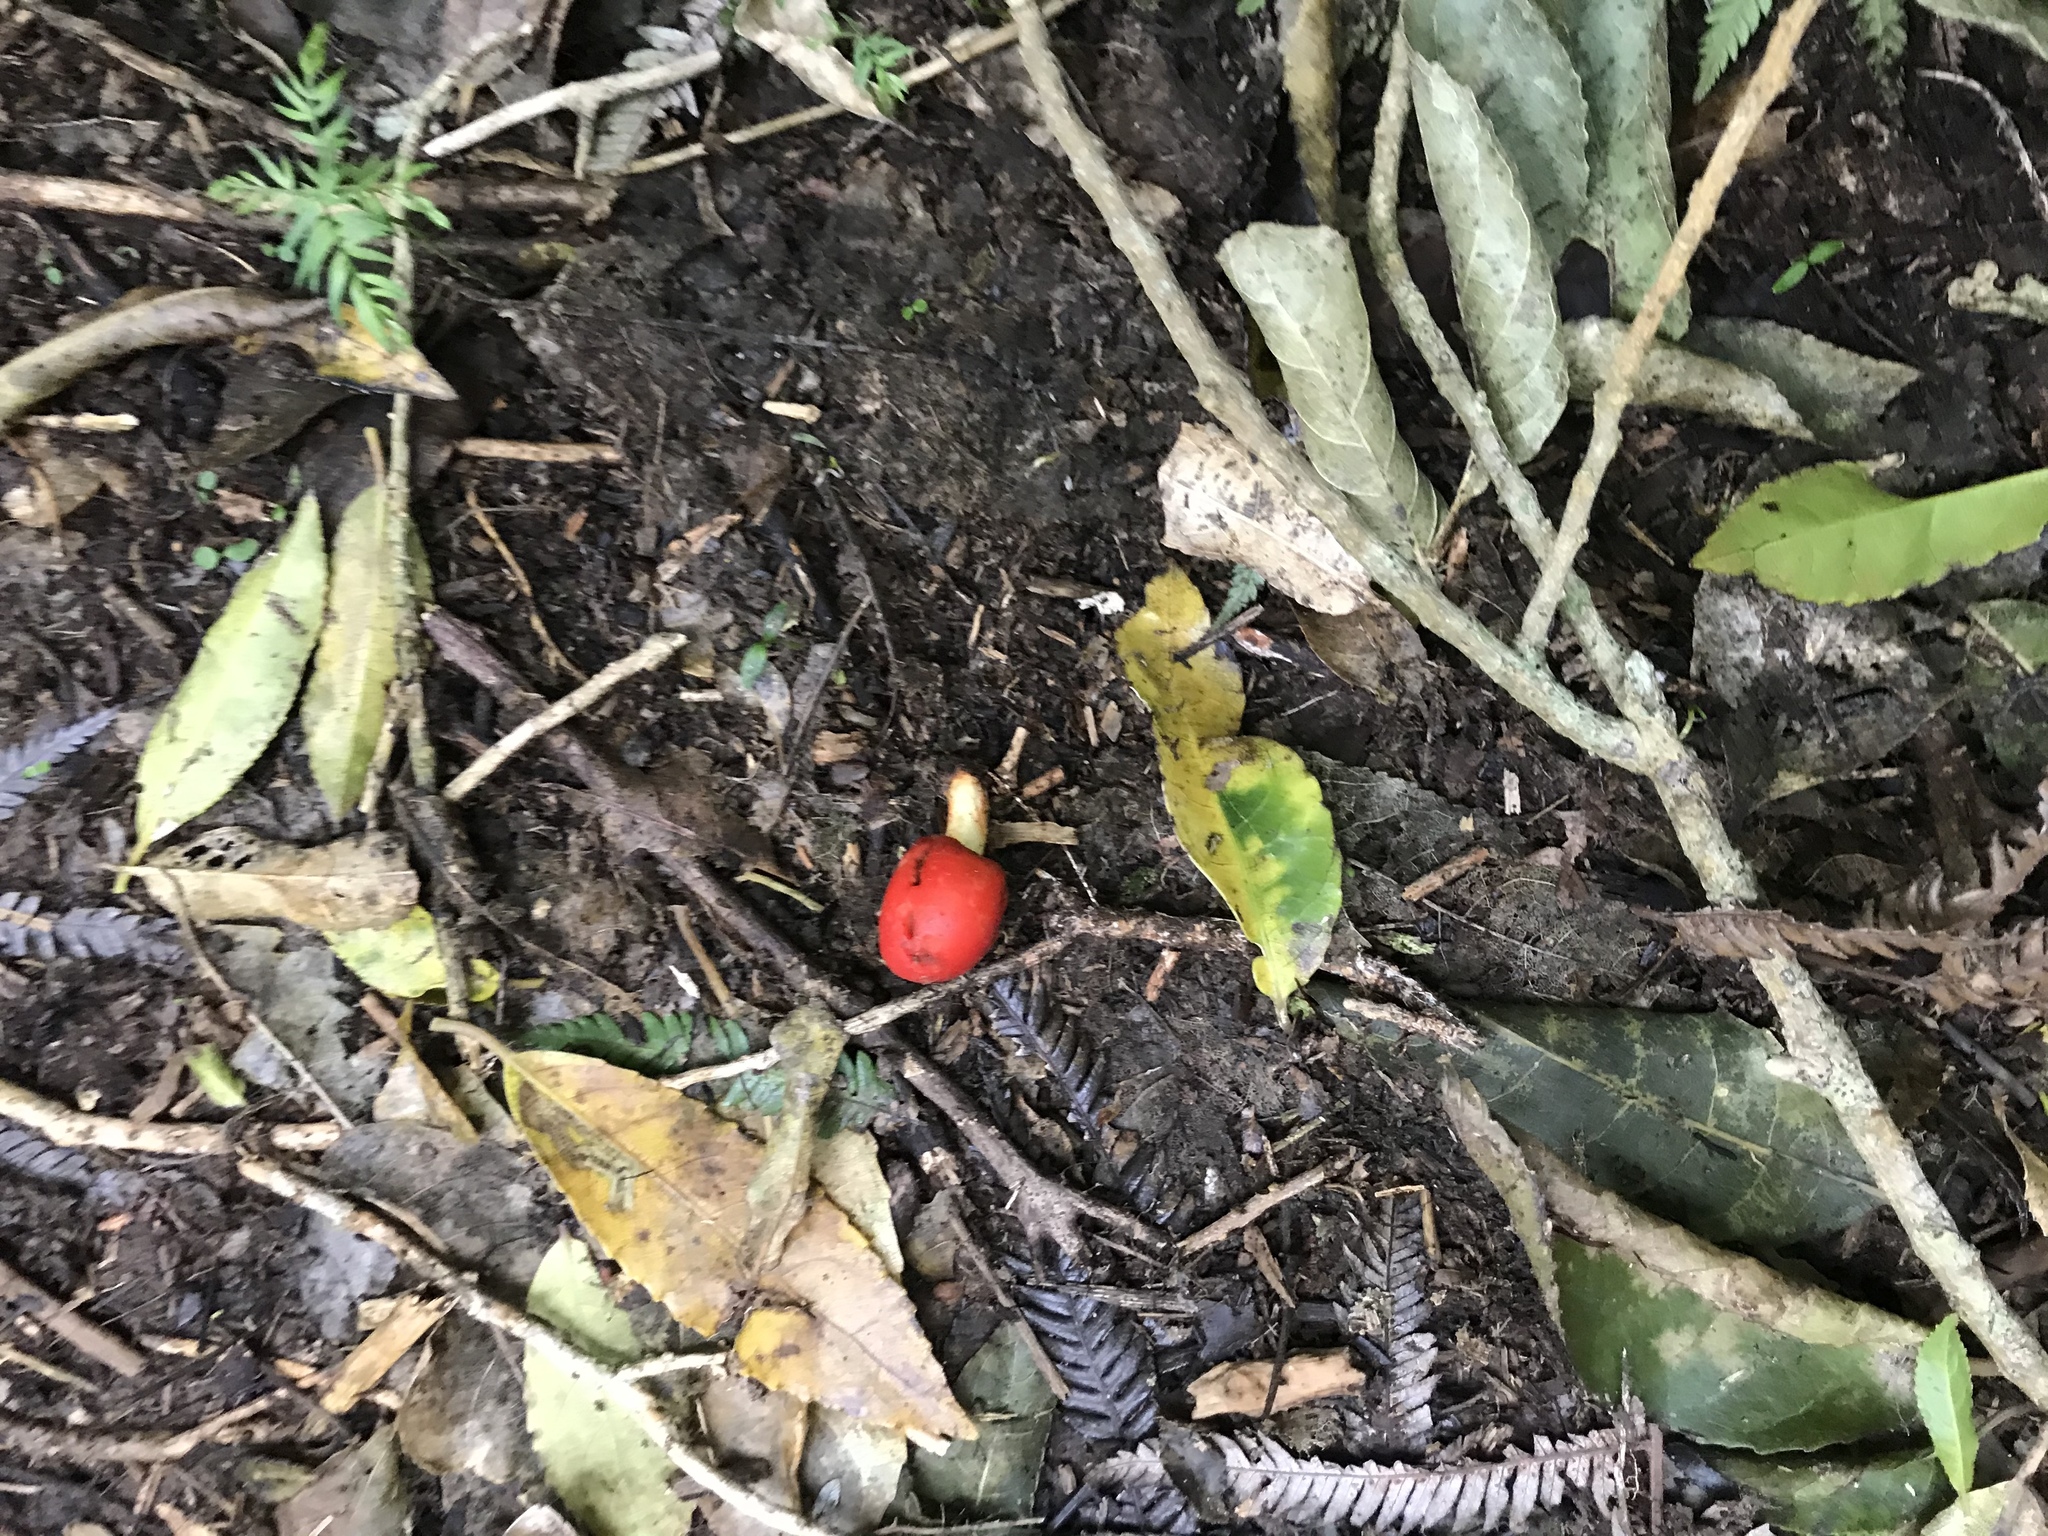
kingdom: Fungi
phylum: Basidiomycota
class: Agaricomycetes
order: Agaricales
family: Strophariaceae
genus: Leratiomyces
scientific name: Leratiomyces erythrocephalus
